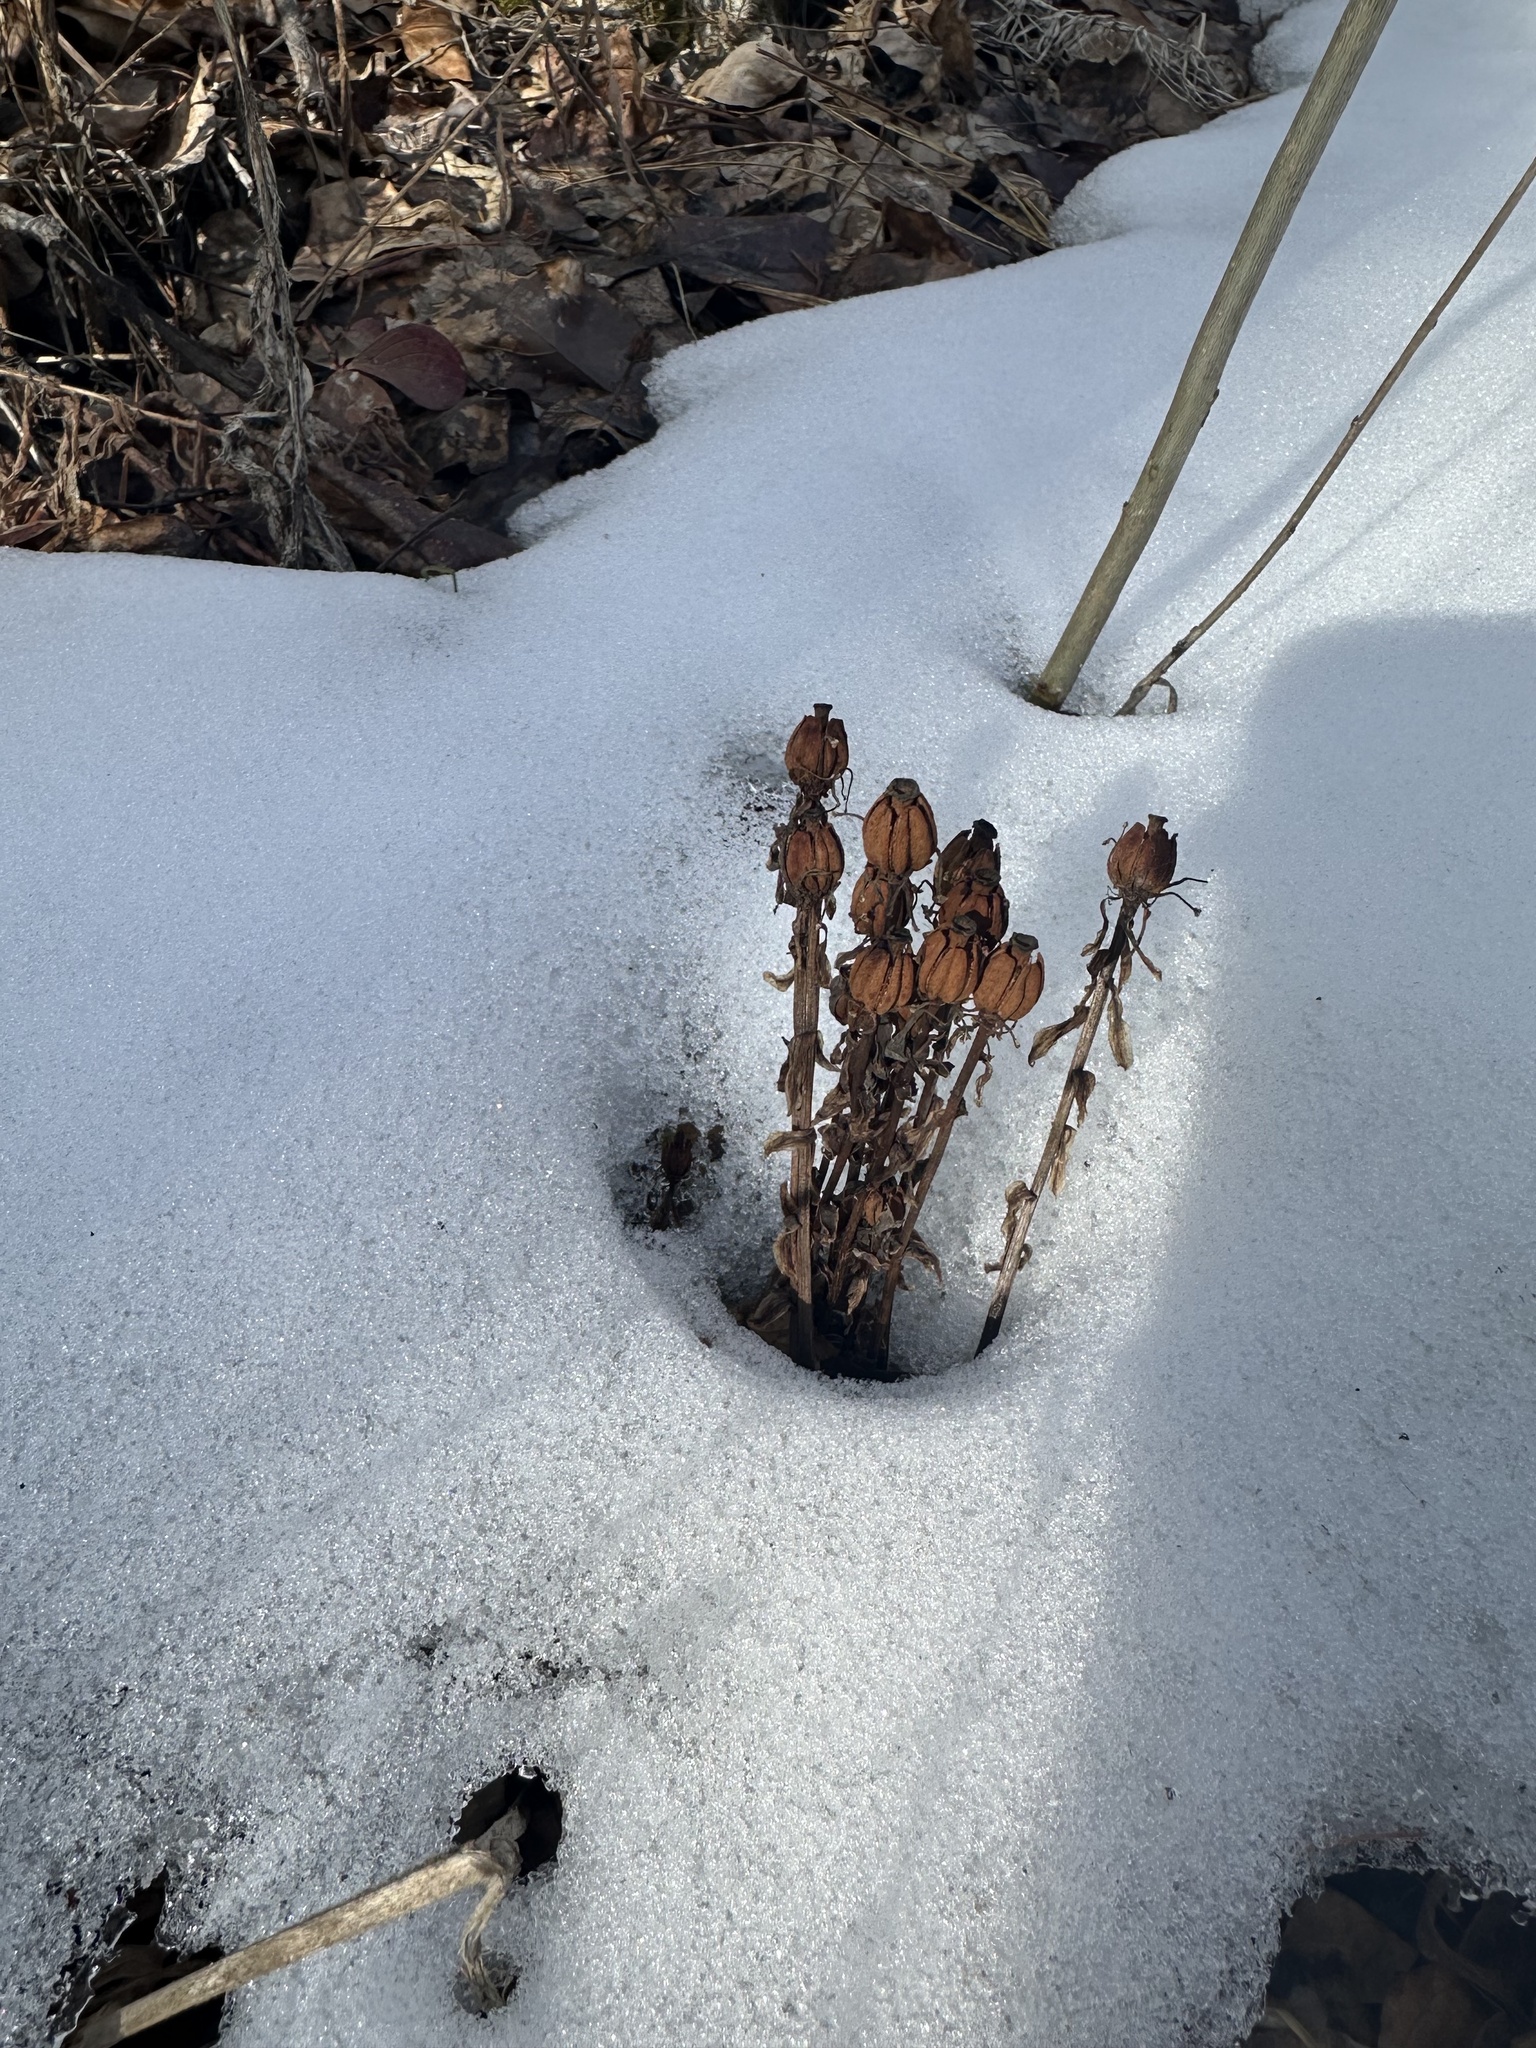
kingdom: Plantae
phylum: Tracheophyta
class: Magnoliopsida
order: Ericales
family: Ericaceae
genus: Monotropa
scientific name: Monotropa uniflora
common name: Convulsion root
